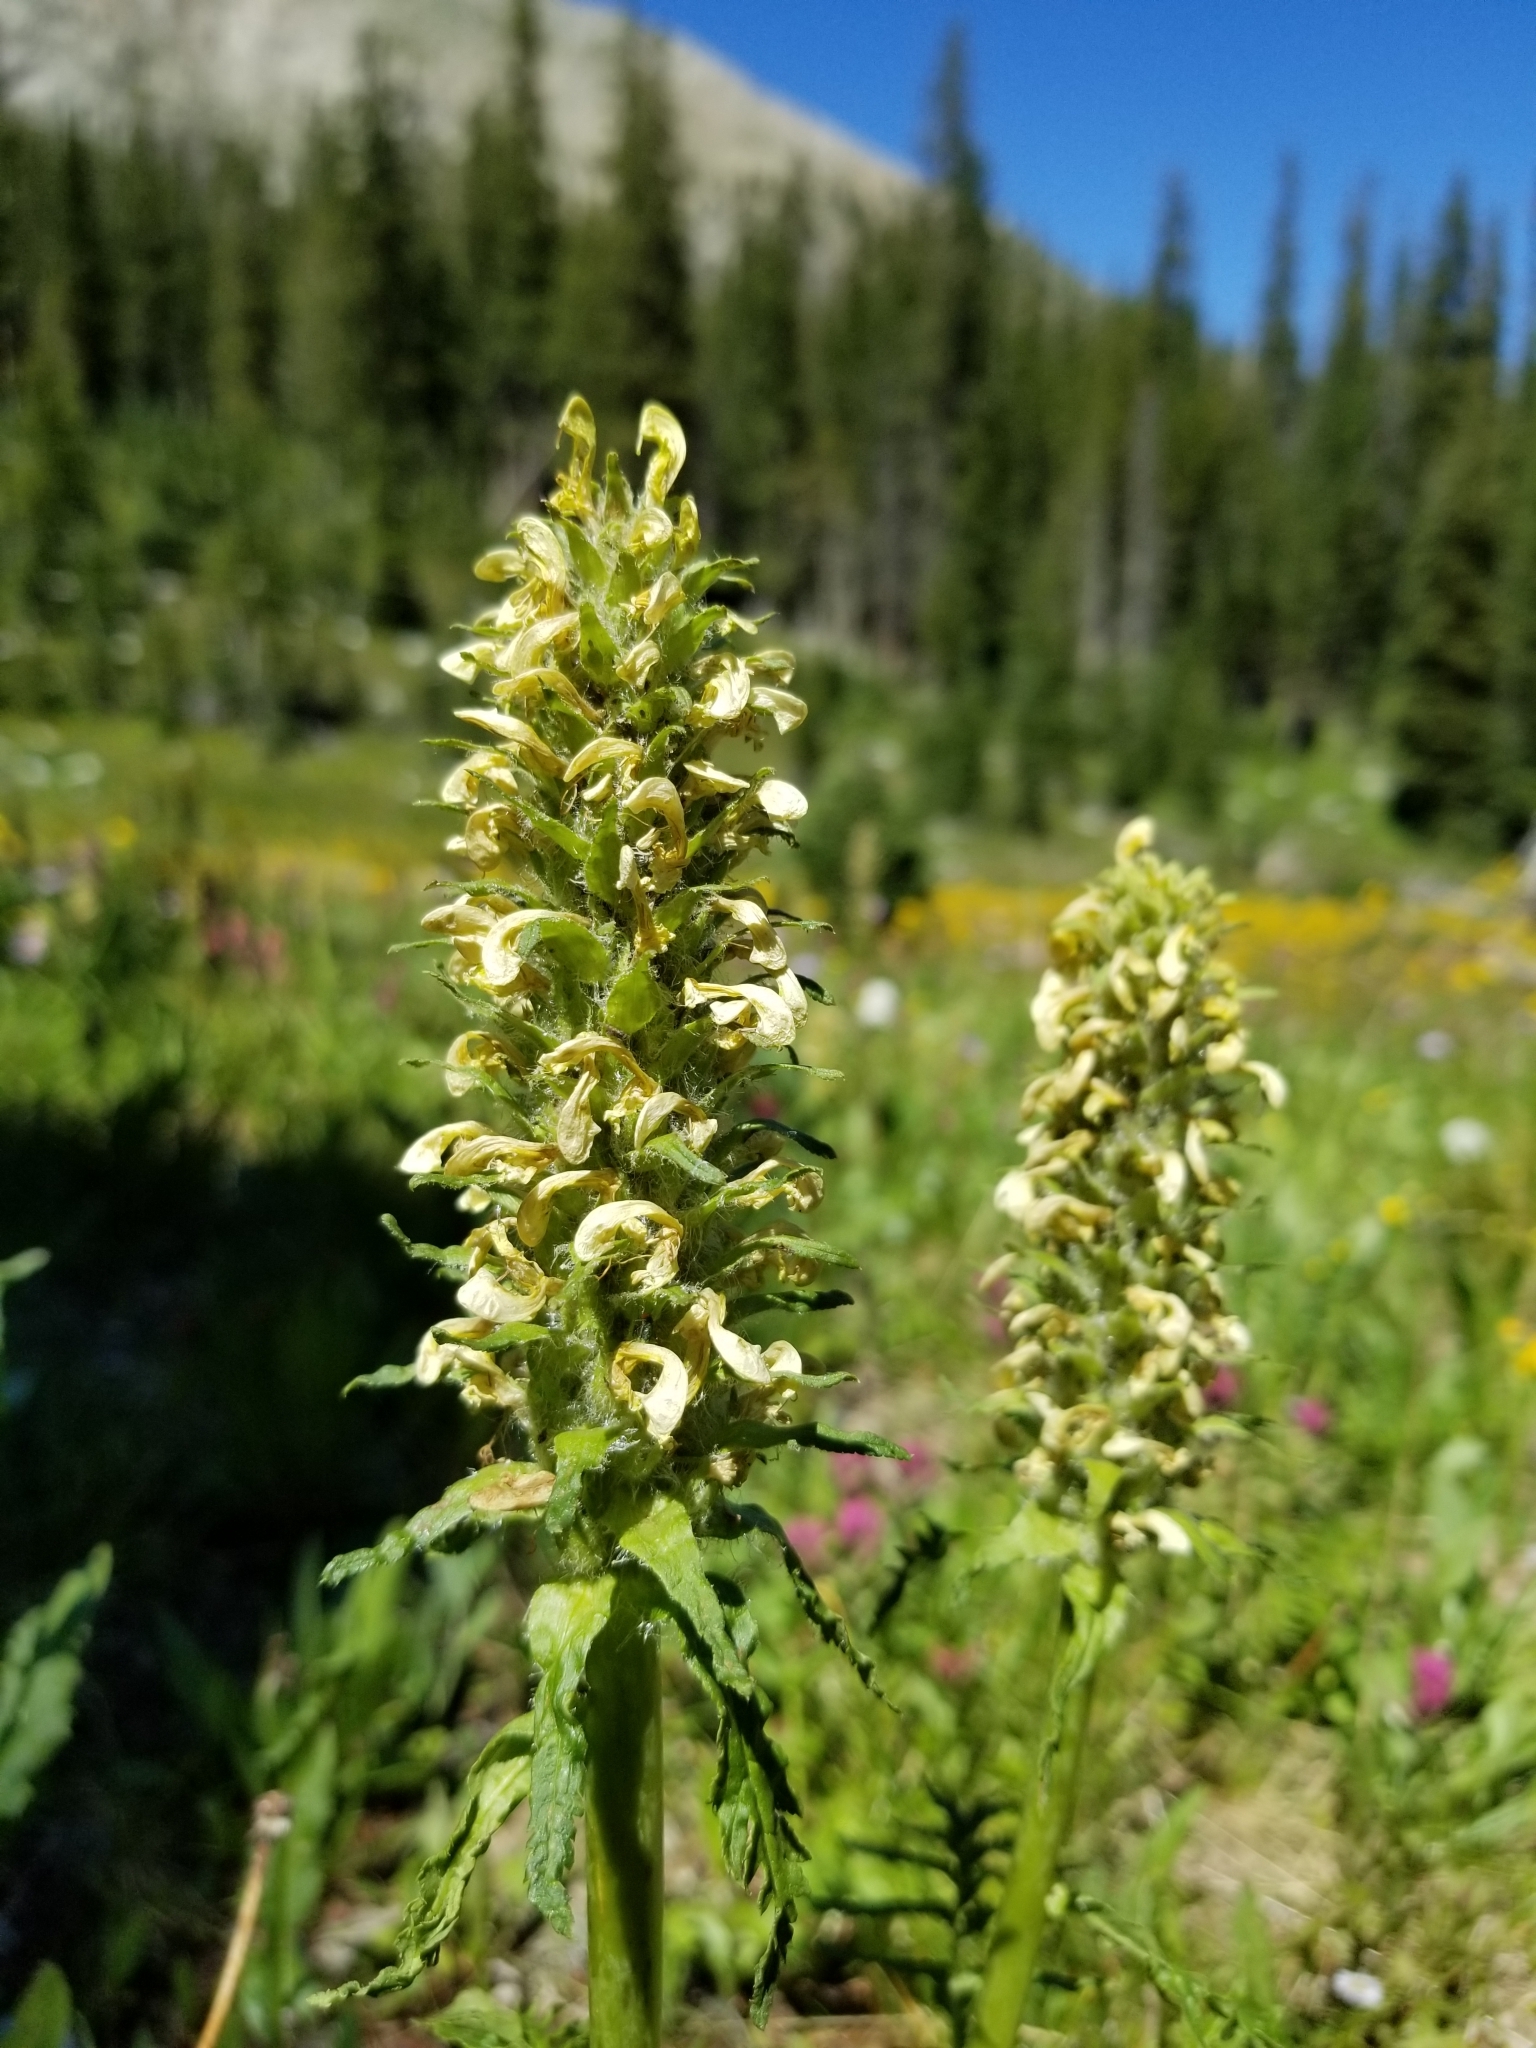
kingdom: Plantae
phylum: Tracheophyta
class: Magnoliopsida
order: Lamiales
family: Orobanchaceae
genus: Pedicularis
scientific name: Pedicularis bracteosa
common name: Bracted lousewort
